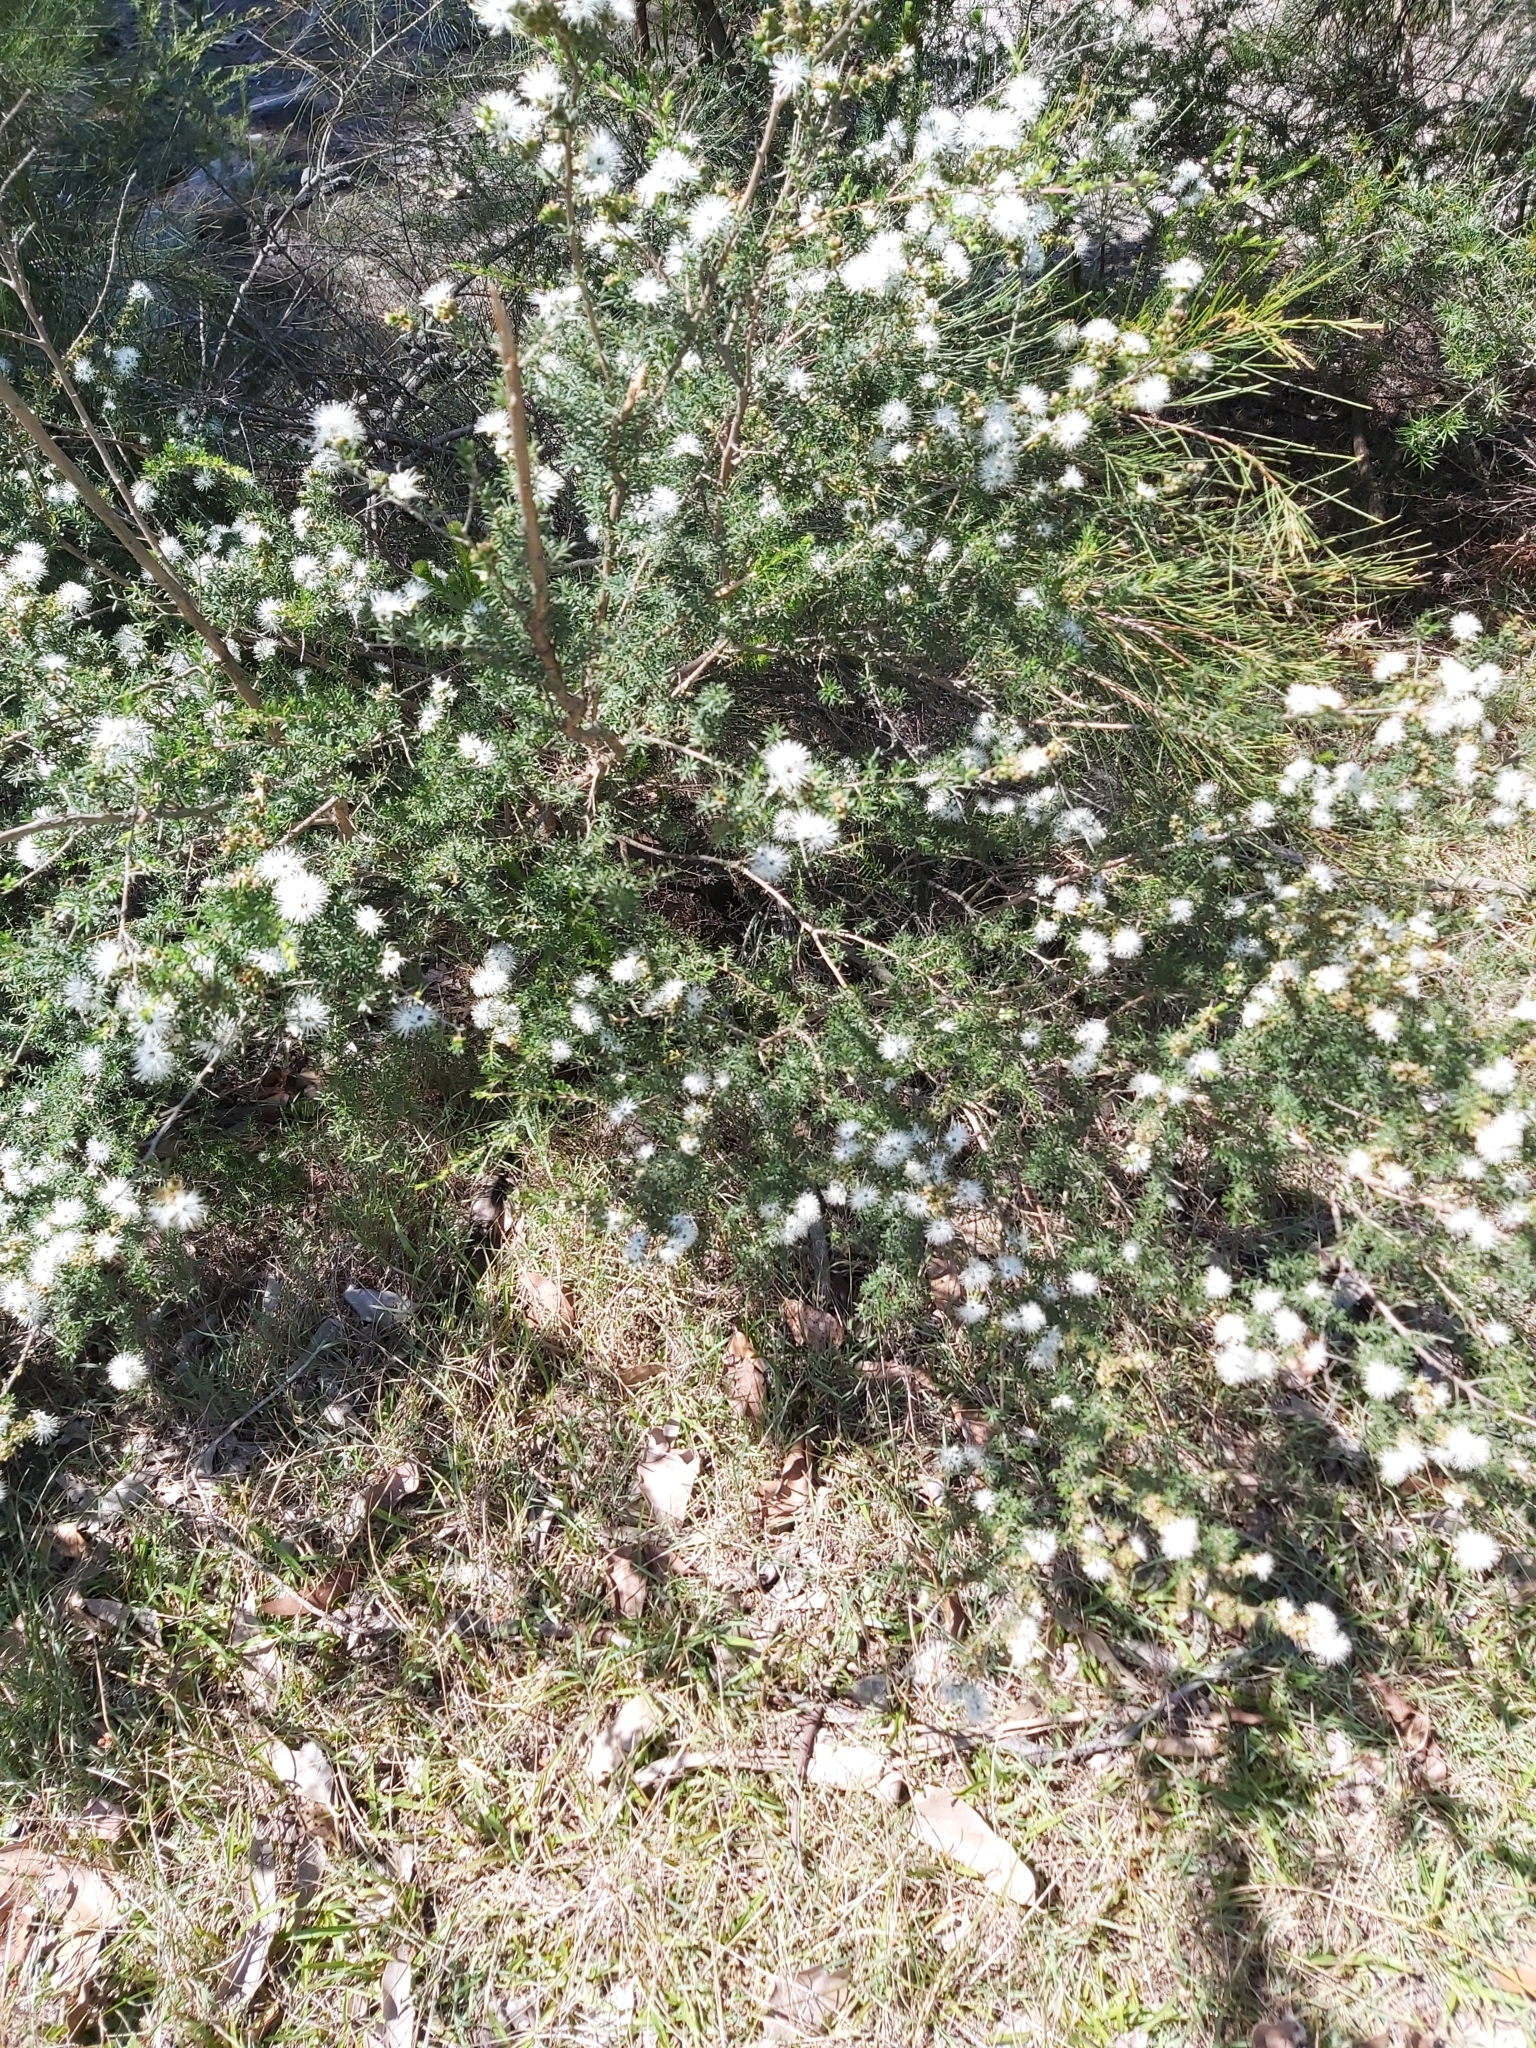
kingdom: Plantae
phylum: Tracheophyta
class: Magnoliopsida
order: Myrtales
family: Myrtaceae
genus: Kunzea
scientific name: Kunzea ambigua
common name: Tickbush
